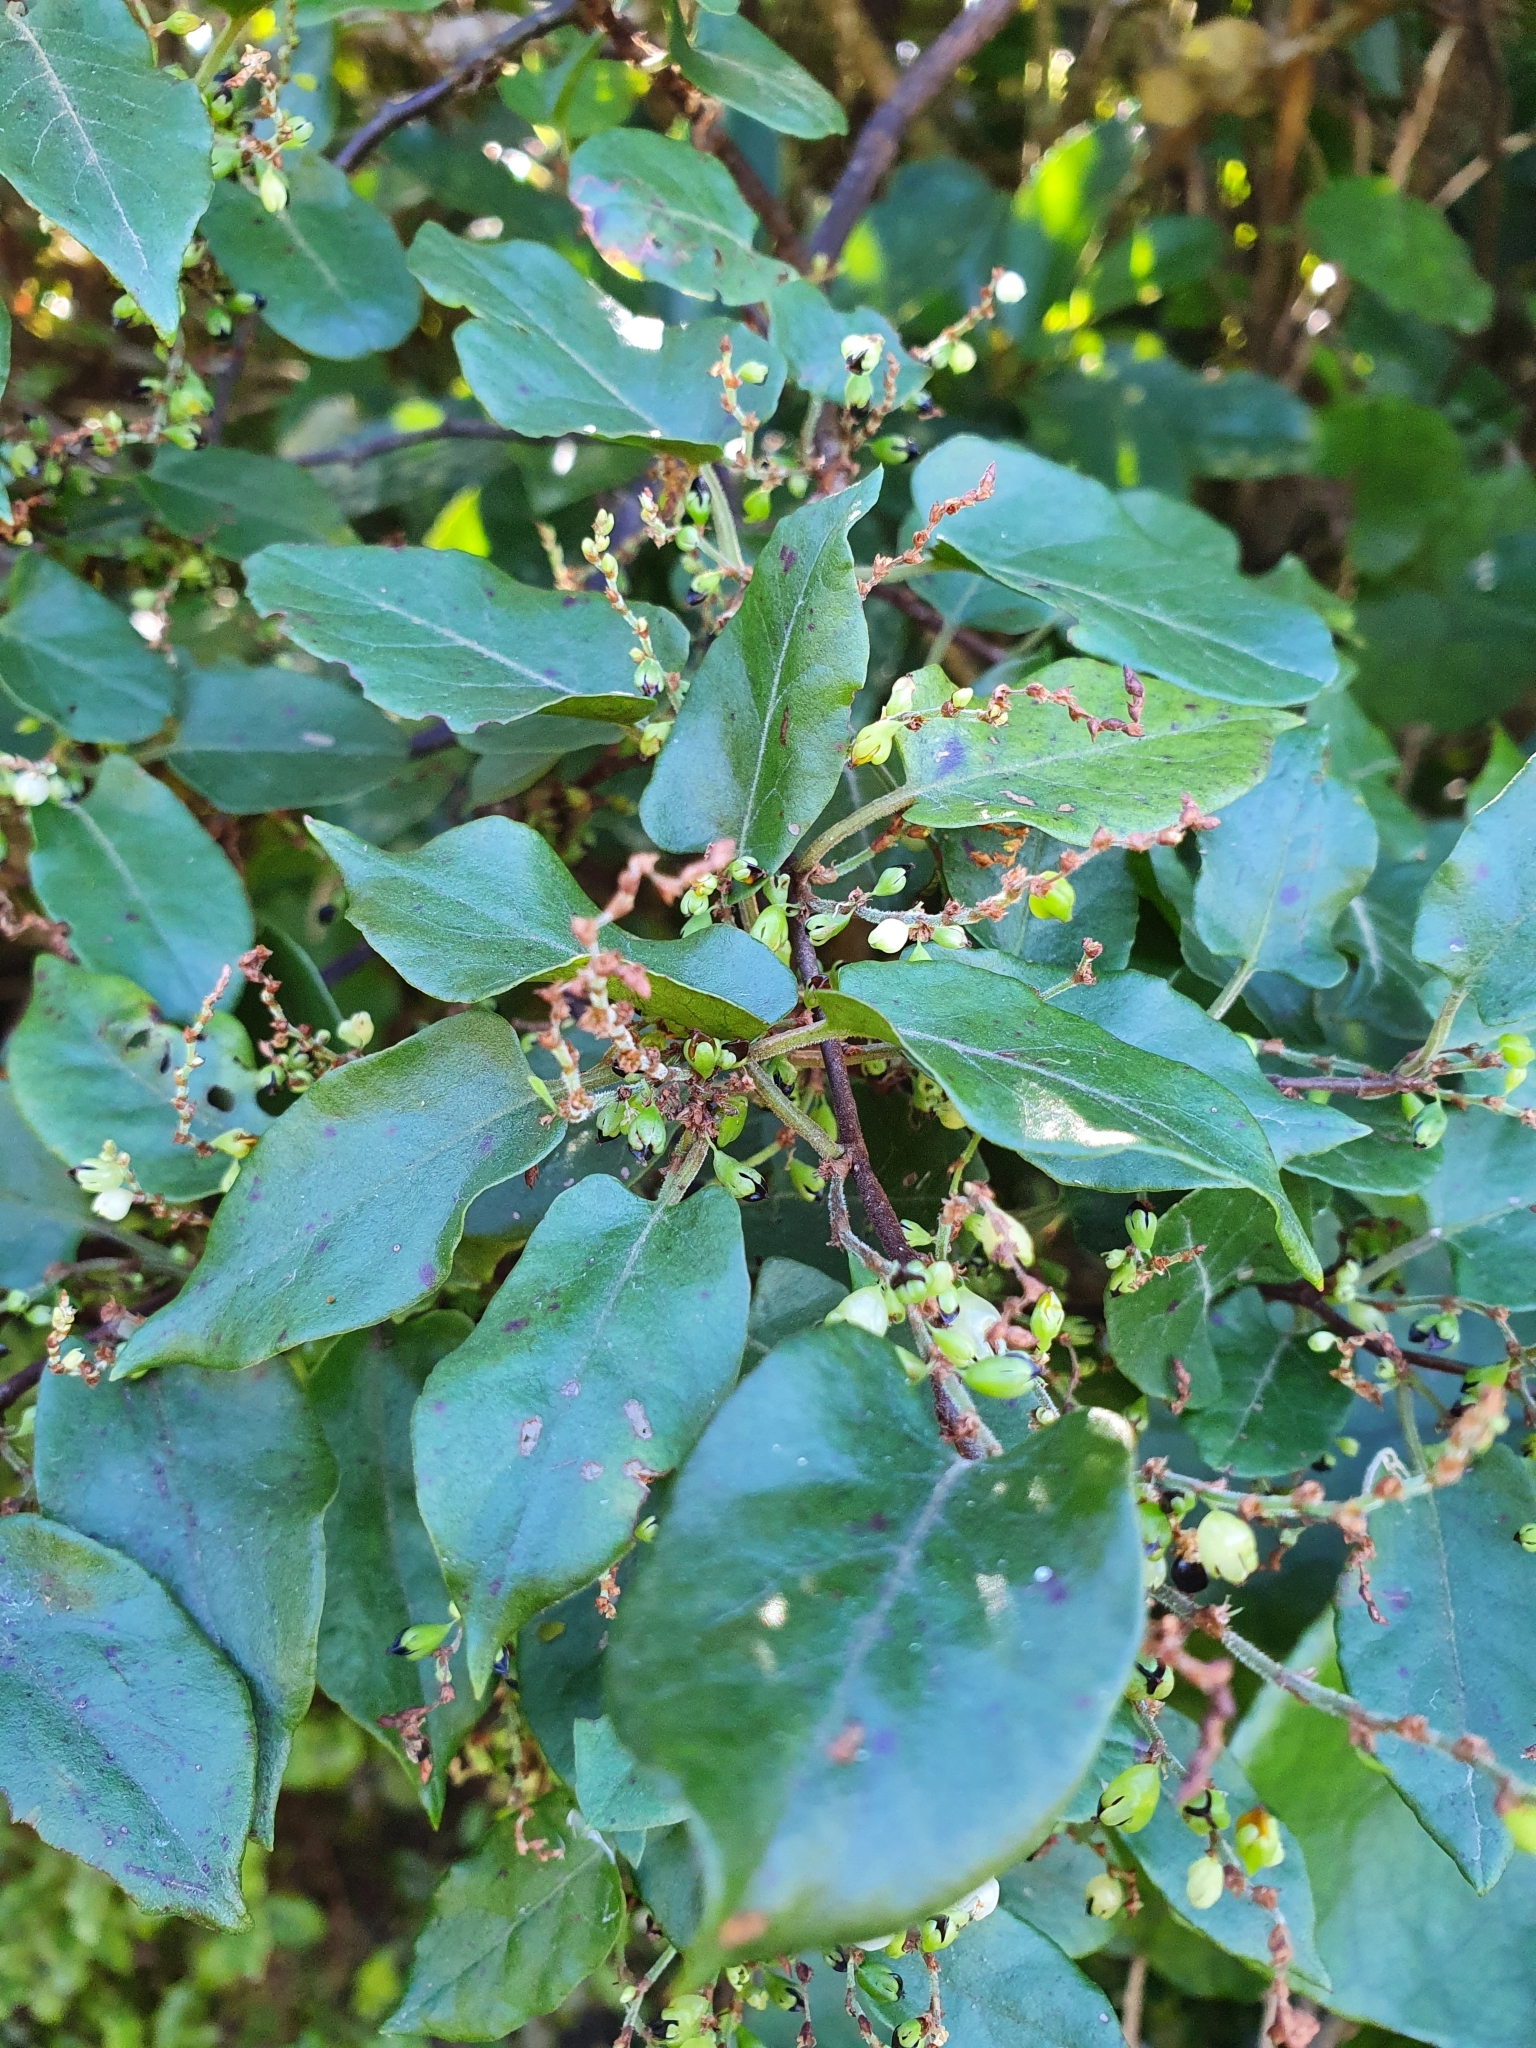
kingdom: Plantae
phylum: Tracheophyta
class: Magnoliopsida
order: Caryophyllales
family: Polygonaceae
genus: Muehlenbeckia
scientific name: Muehlenbeckia complexa
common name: Wireplant
